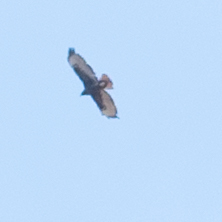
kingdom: Animalia
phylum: Chordata
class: Aves
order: Accipitriformes
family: Accipitridae
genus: Buteo
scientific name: Buteo jamaicensis
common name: Red-tailed hawk
